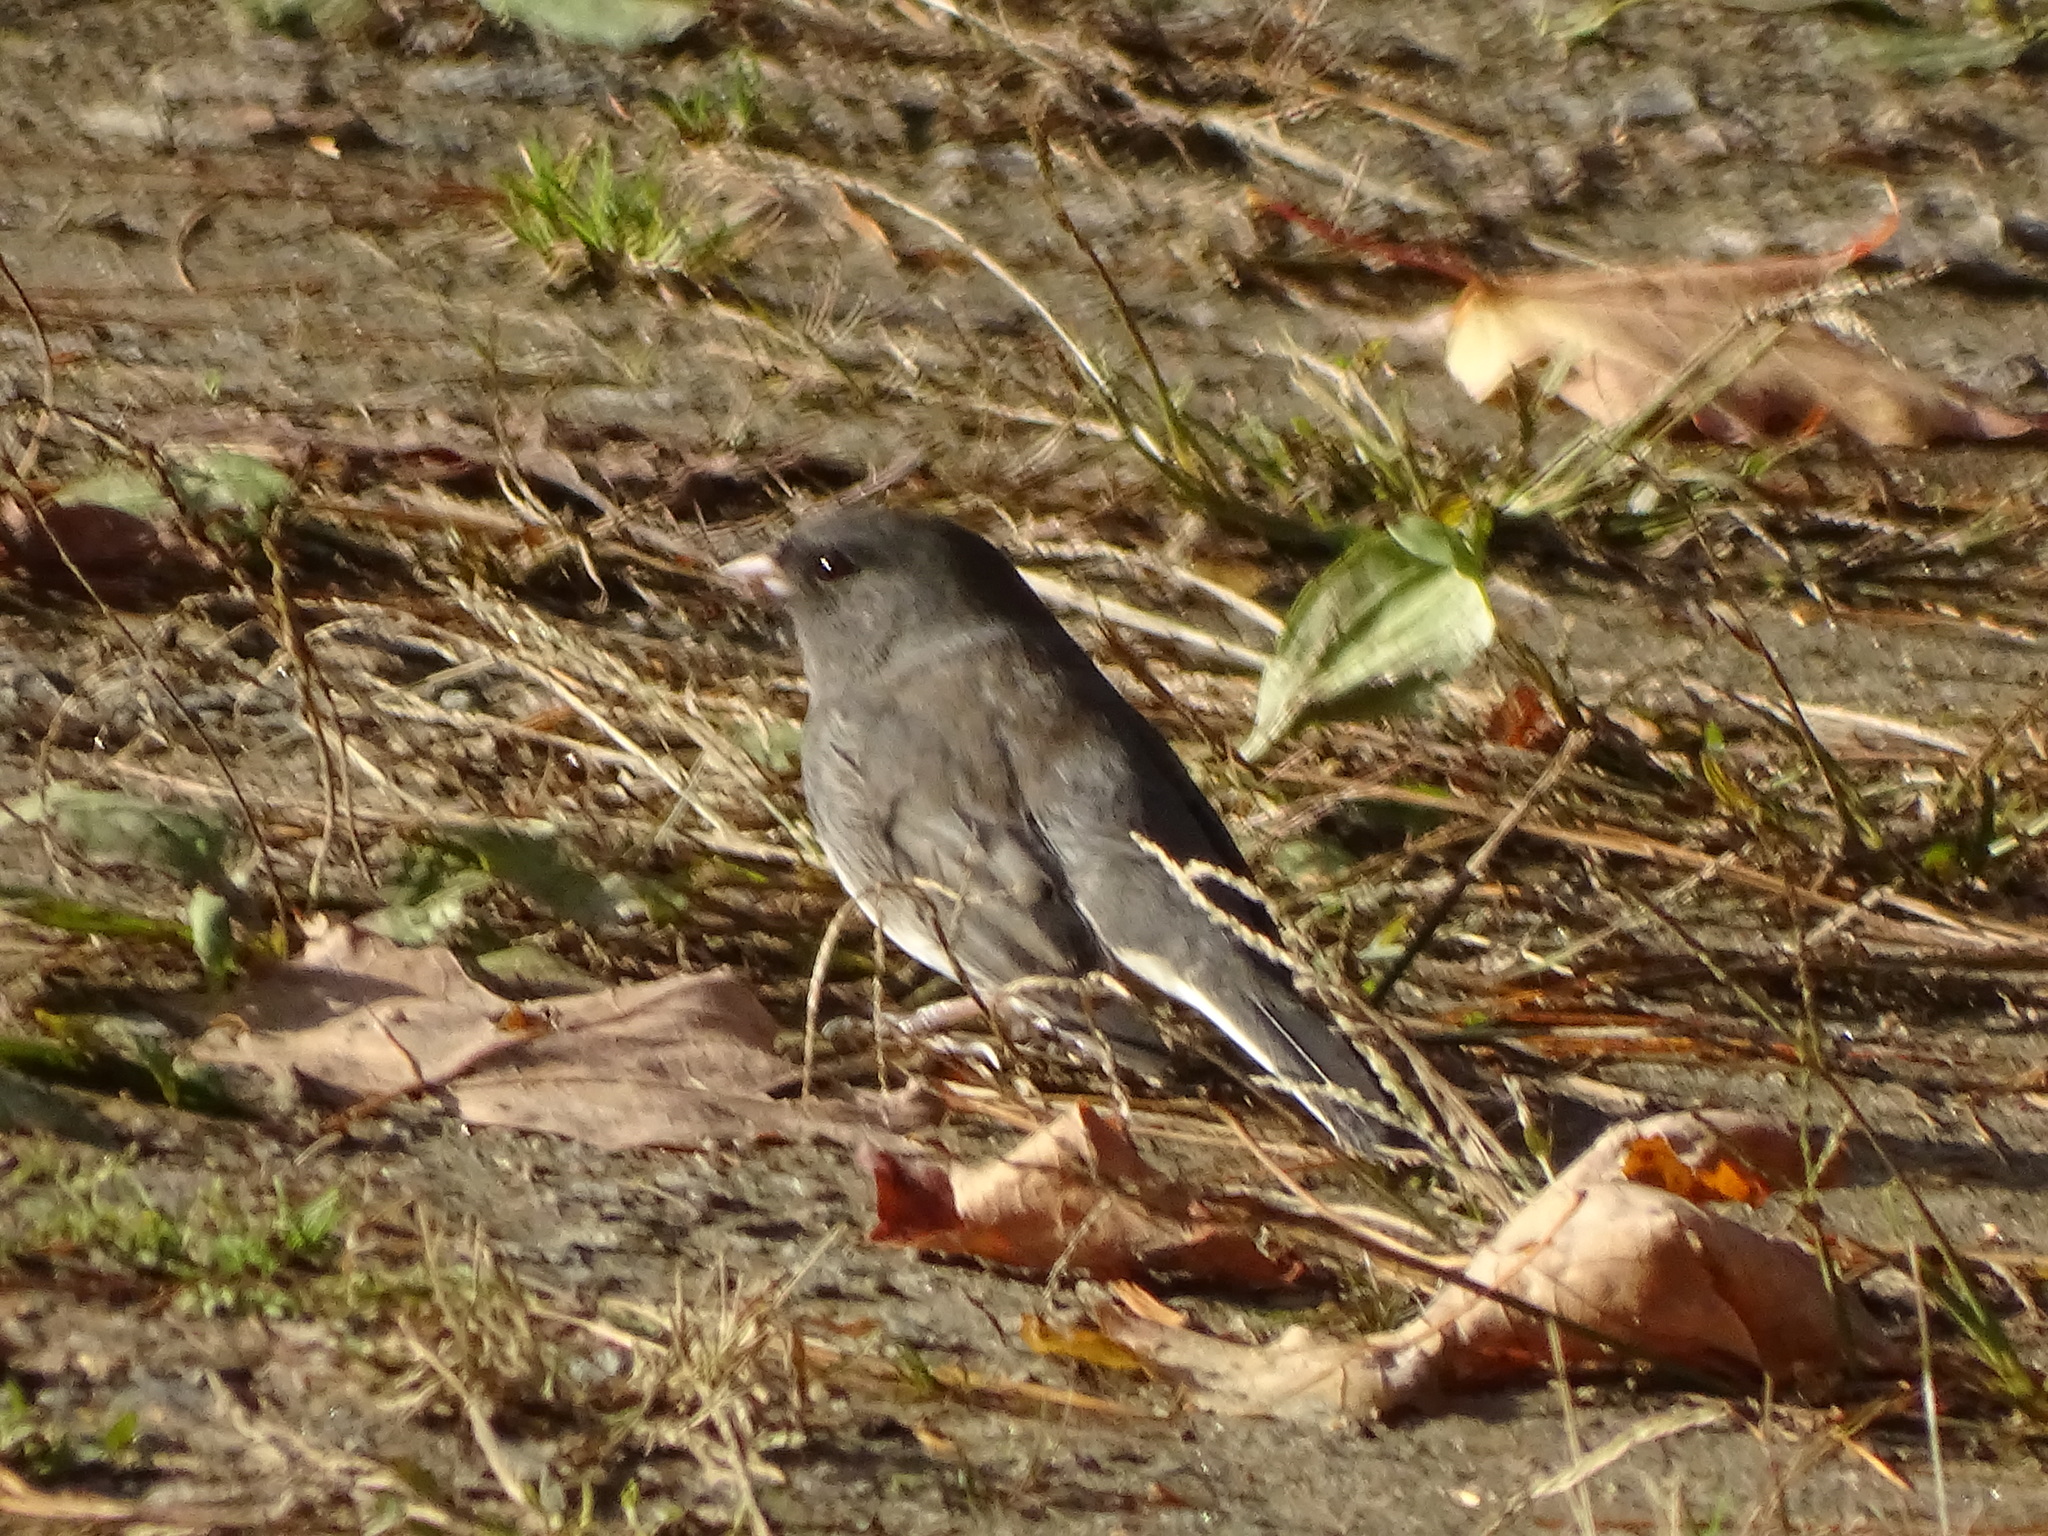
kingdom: Animalia
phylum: Chordata
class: Aves
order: Passeriformes
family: Passerellidae
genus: Junco
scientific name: Junco hyemalis
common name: Dark-eyed junco
